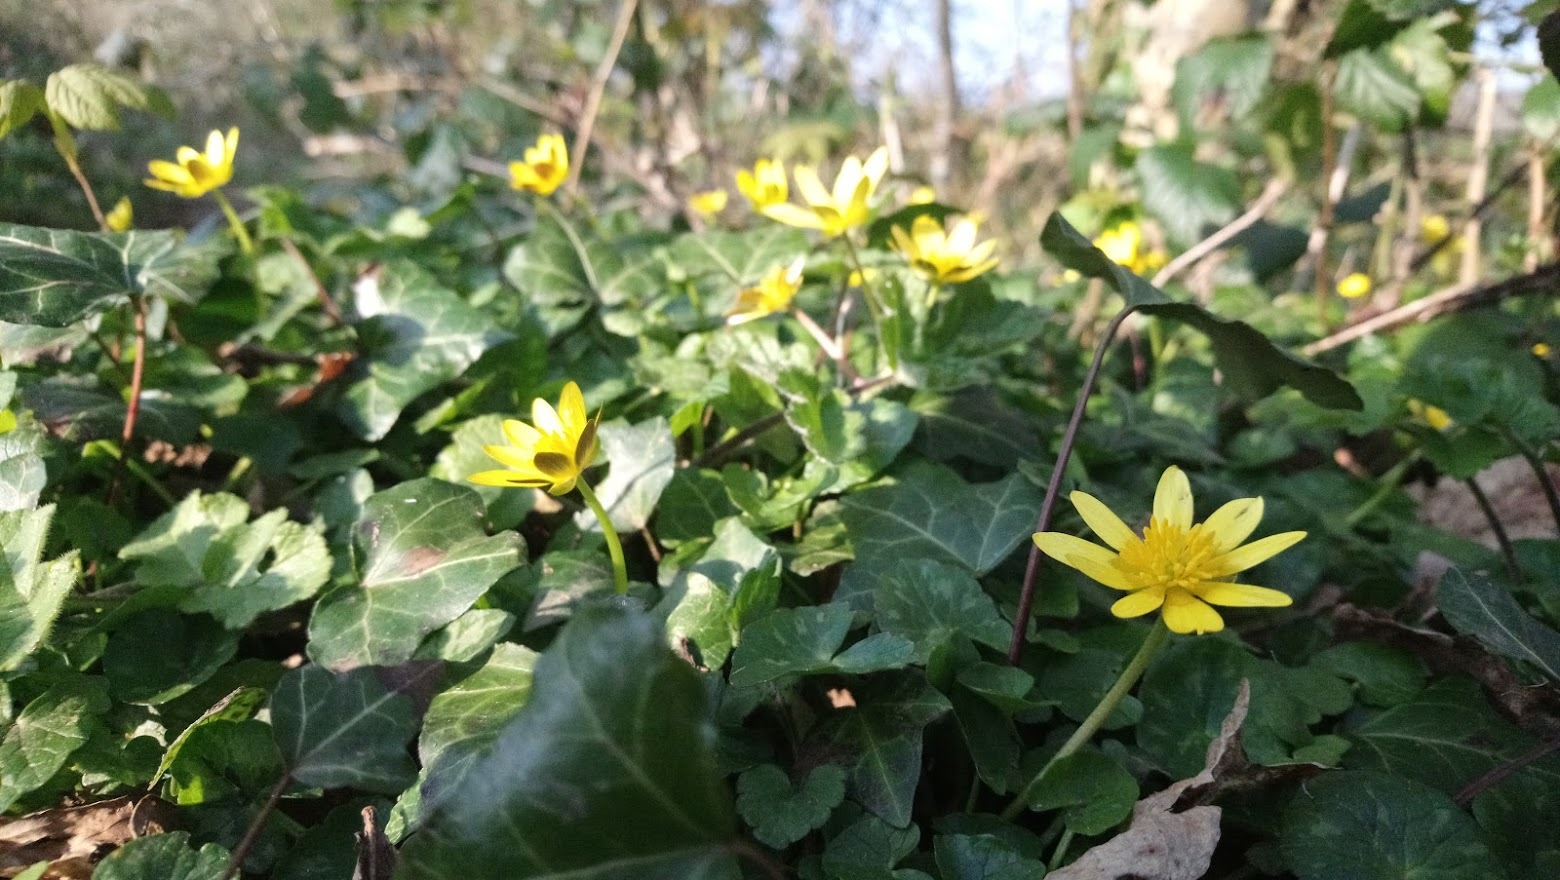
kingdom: Plantae
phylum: Tracheophyta
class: Magnoliopsida
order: Ranunculales
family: Ranunculaceae
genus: Ficaria
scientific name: Ficaria verna
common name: Lesser celandine
